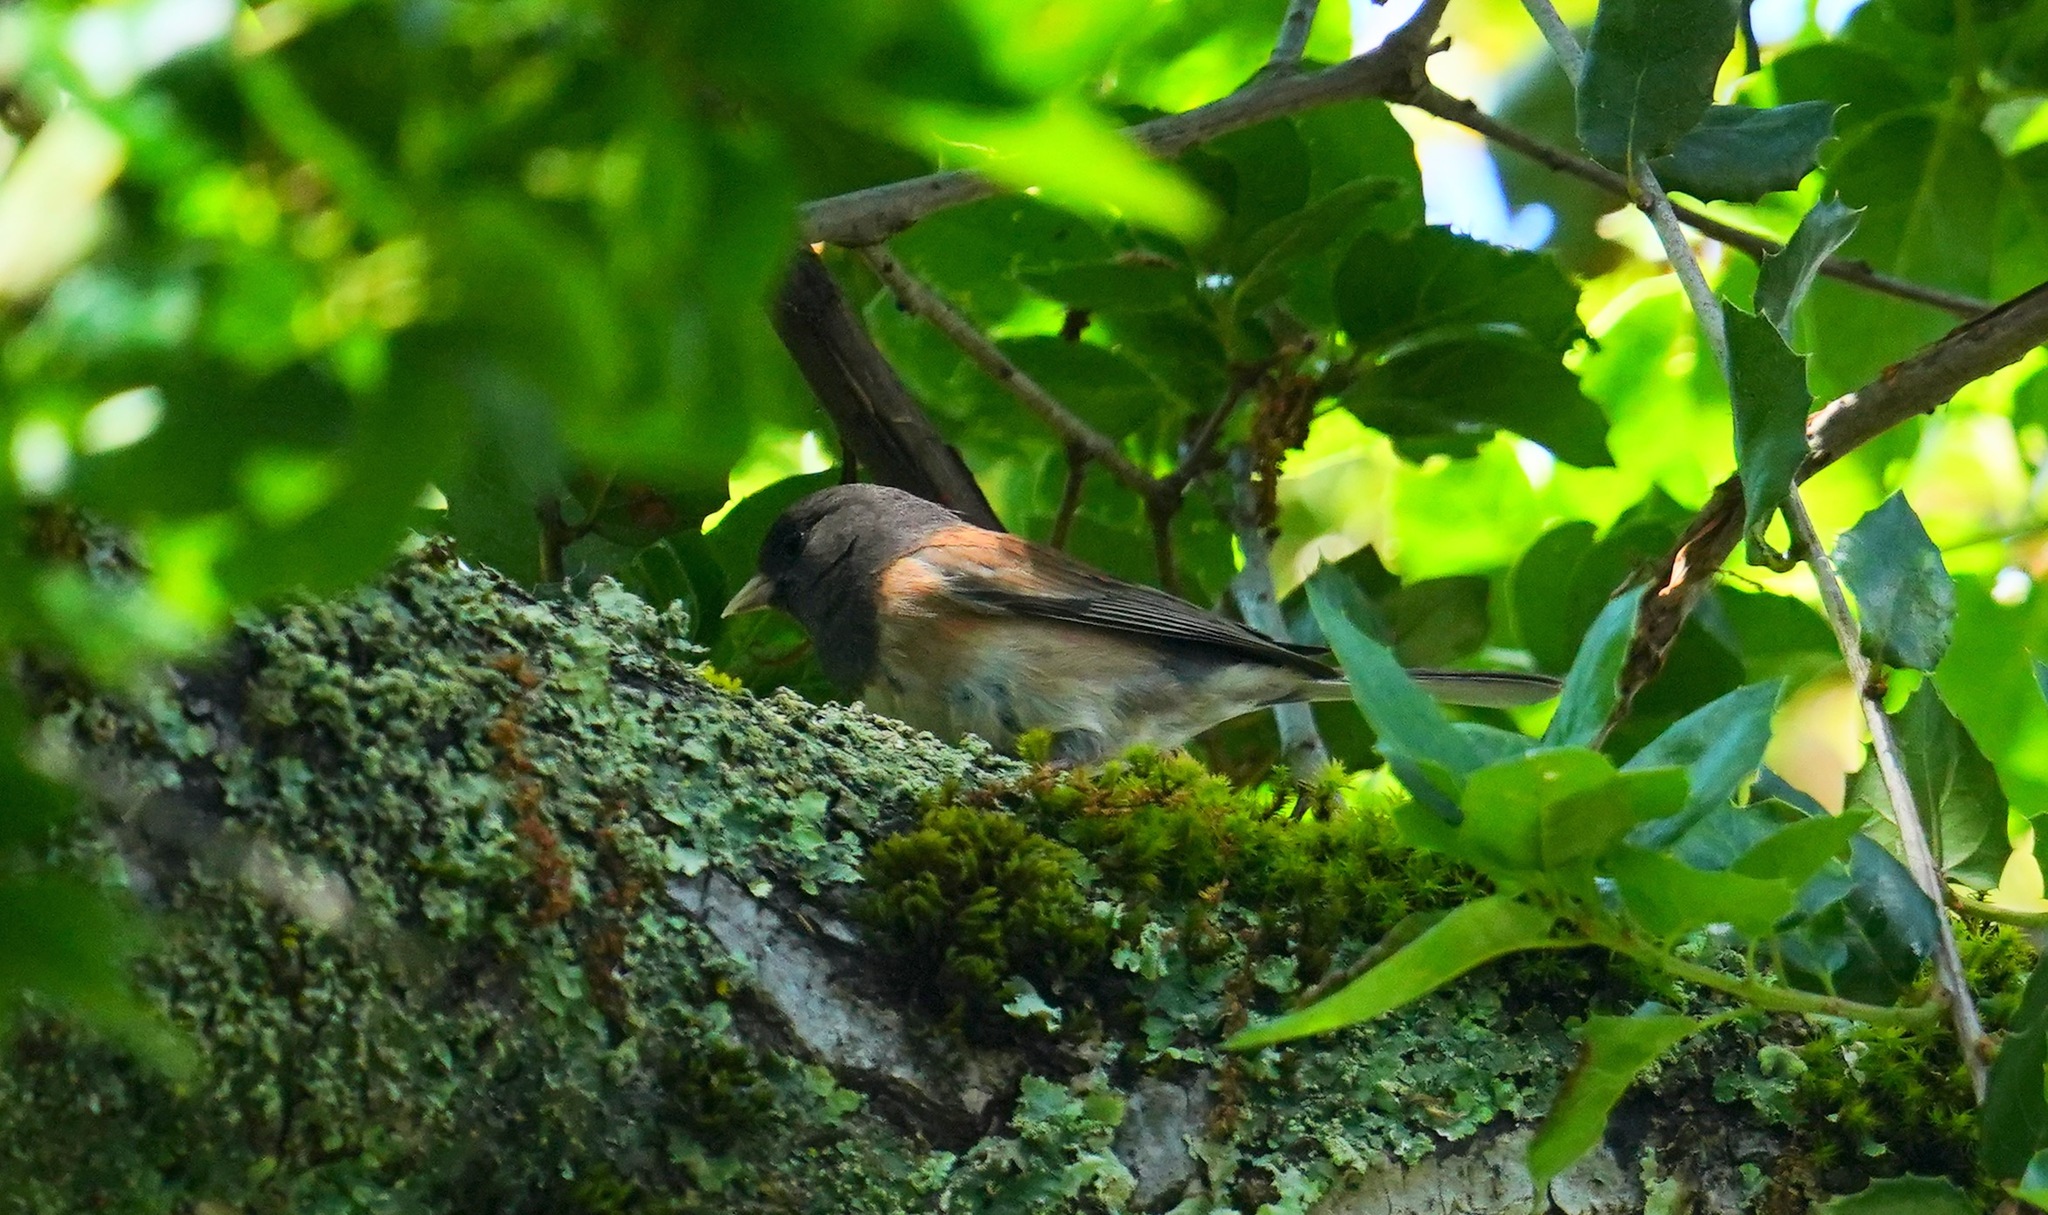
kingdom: Animalia
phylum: Chordata
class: Aves
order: Passeriformes
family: Passerellidae
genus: Junco
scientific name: Junco hyemalis
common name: Dark-eyed junco
